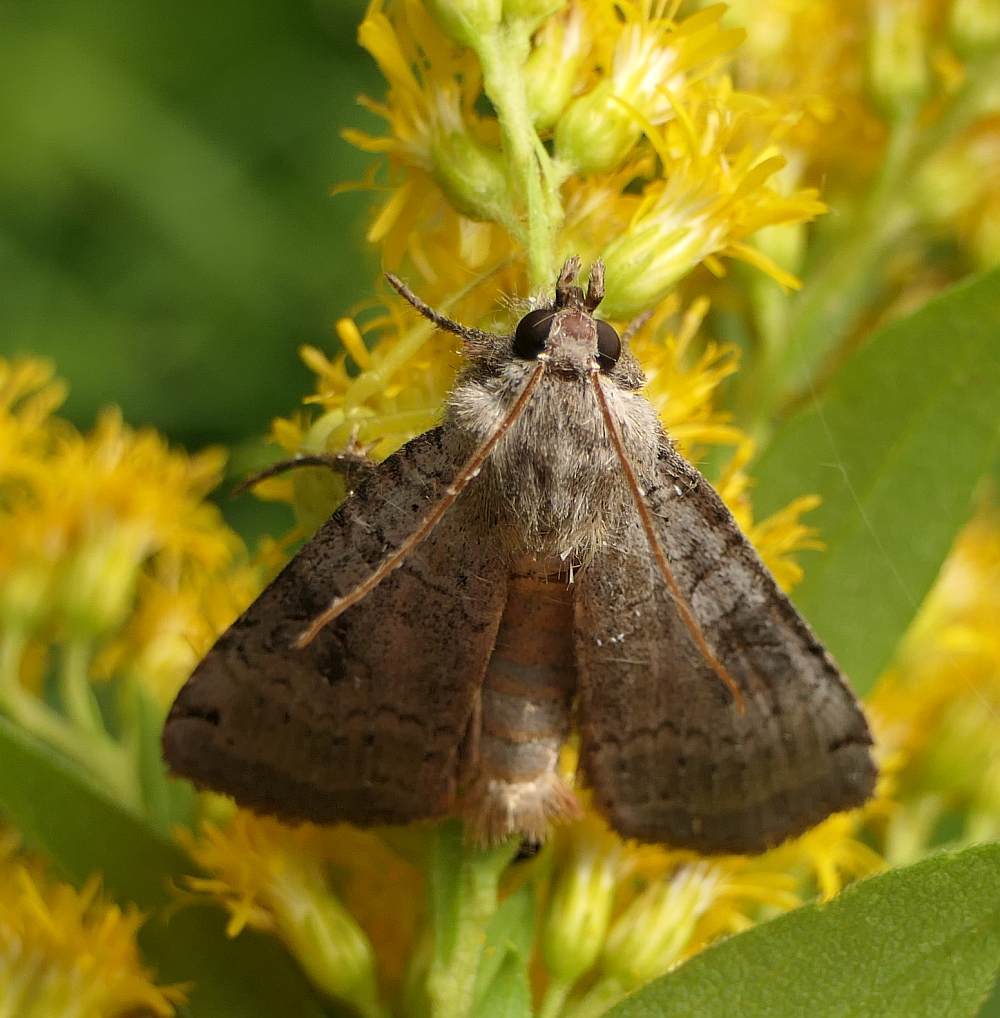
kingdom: Animalia
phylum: Arthropoda
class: Insecta
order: Lepidoptera
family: Noctuidae
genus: Xestia
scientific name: Xestia smithii
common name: Smith's dart
